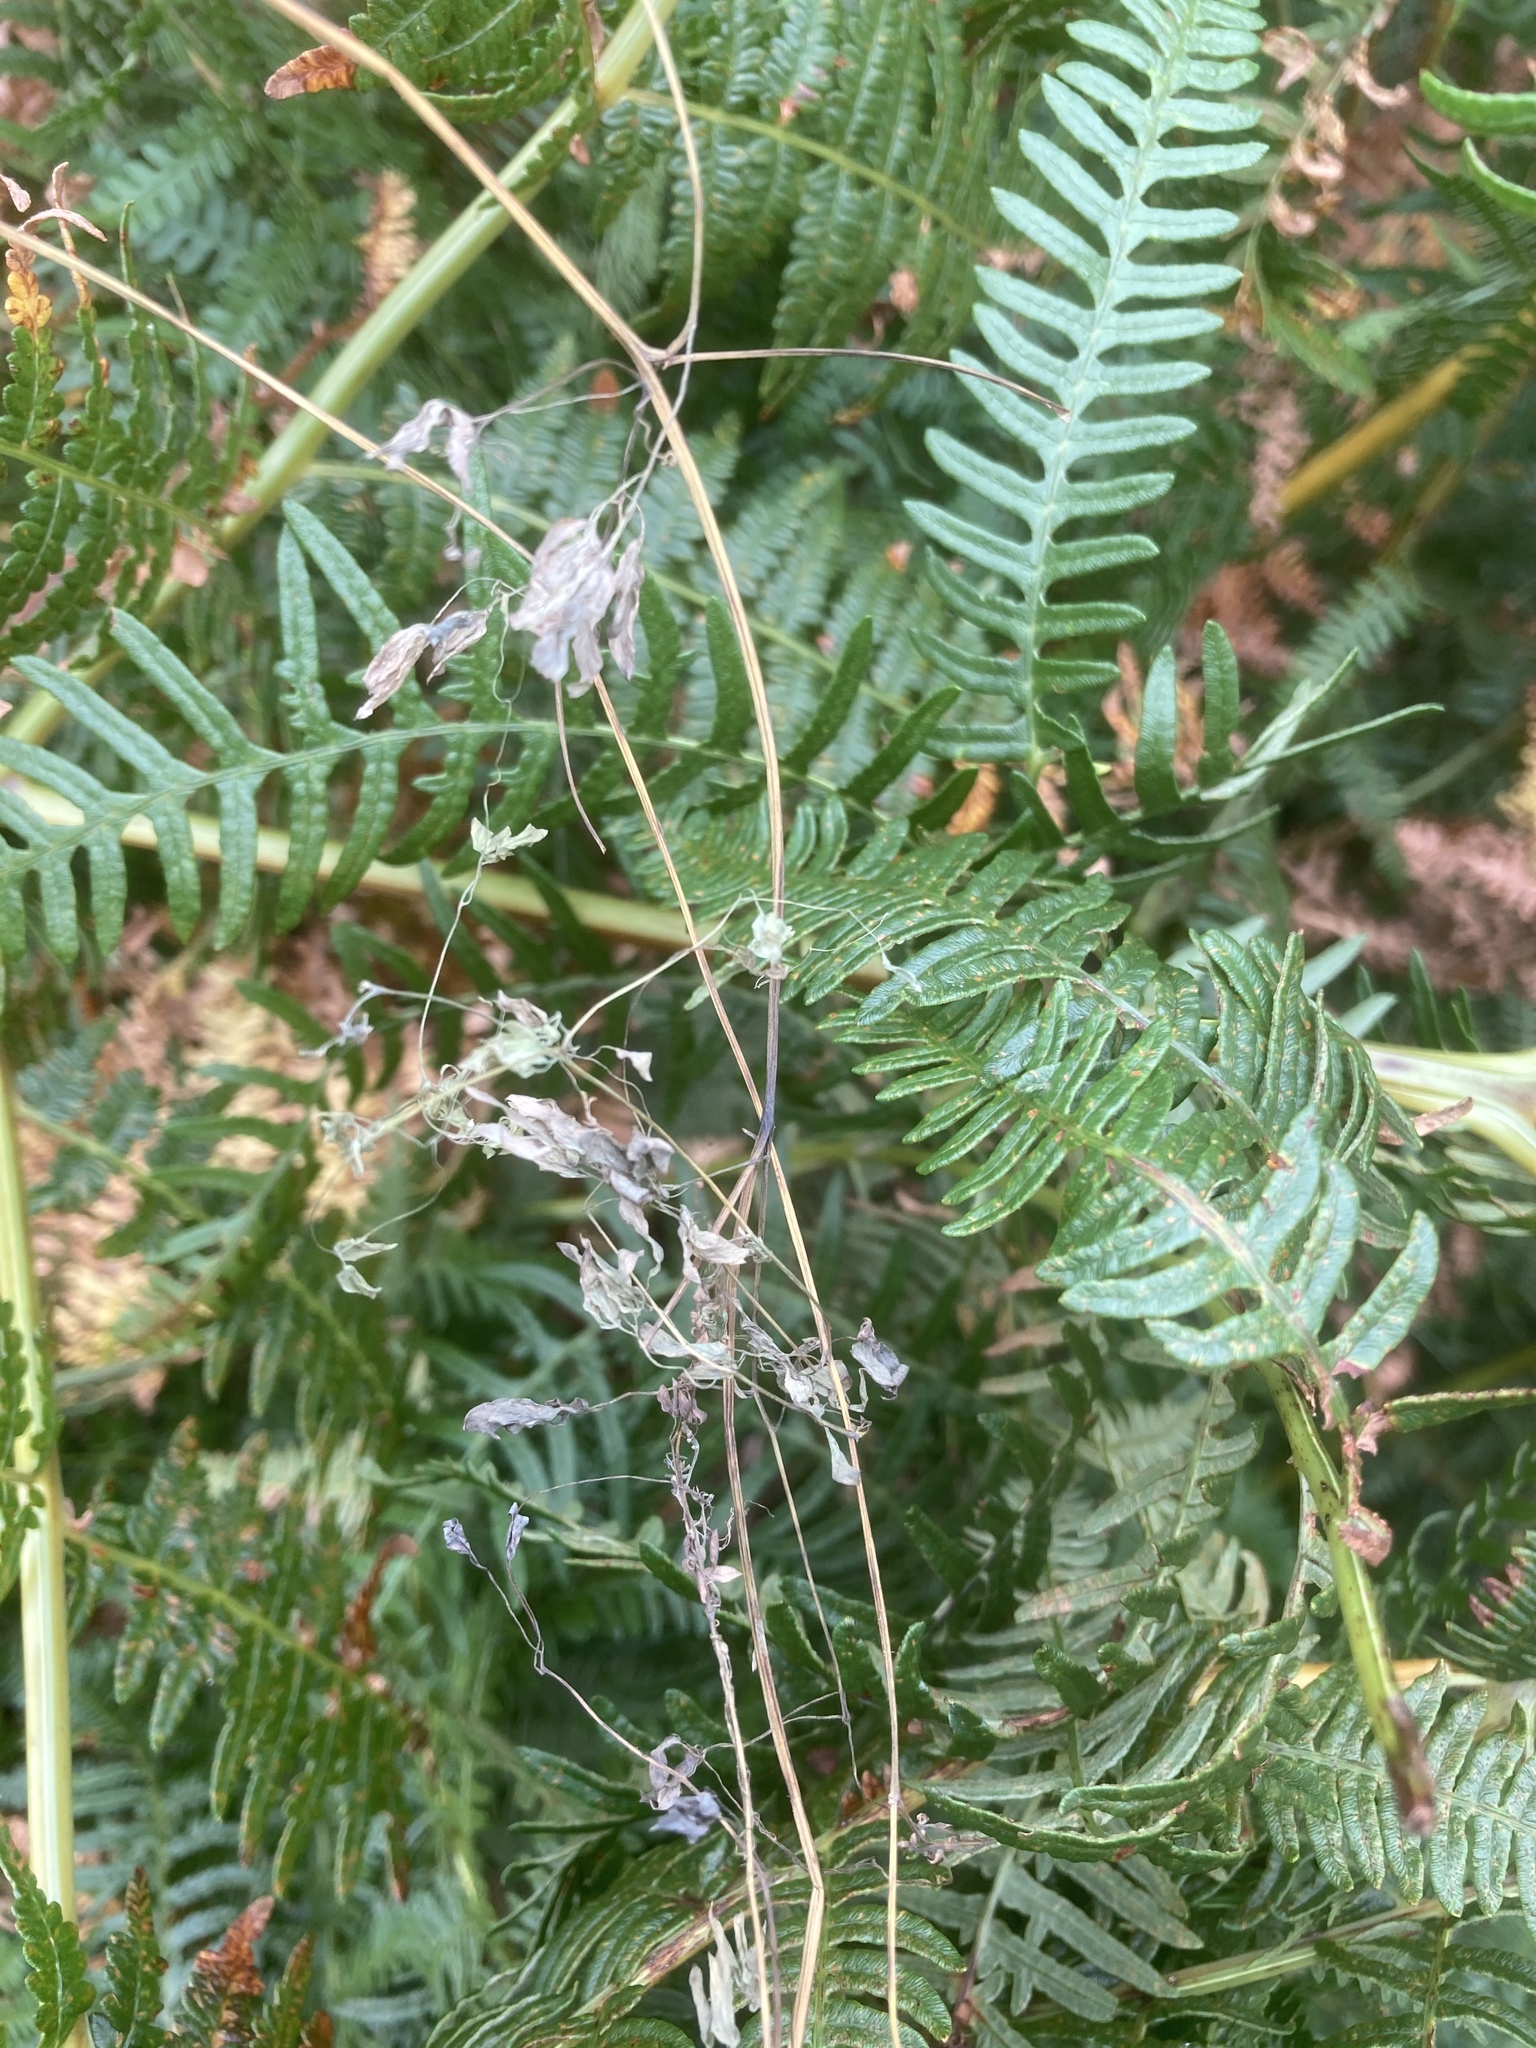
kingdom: Plantae
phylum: Tracheophyta
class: Magnoliopsida
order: Ranunculales
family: Papaveraceae
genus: Ceratocapnos
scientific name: Ceratocapnos claviculata
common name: Climbing corydalis
